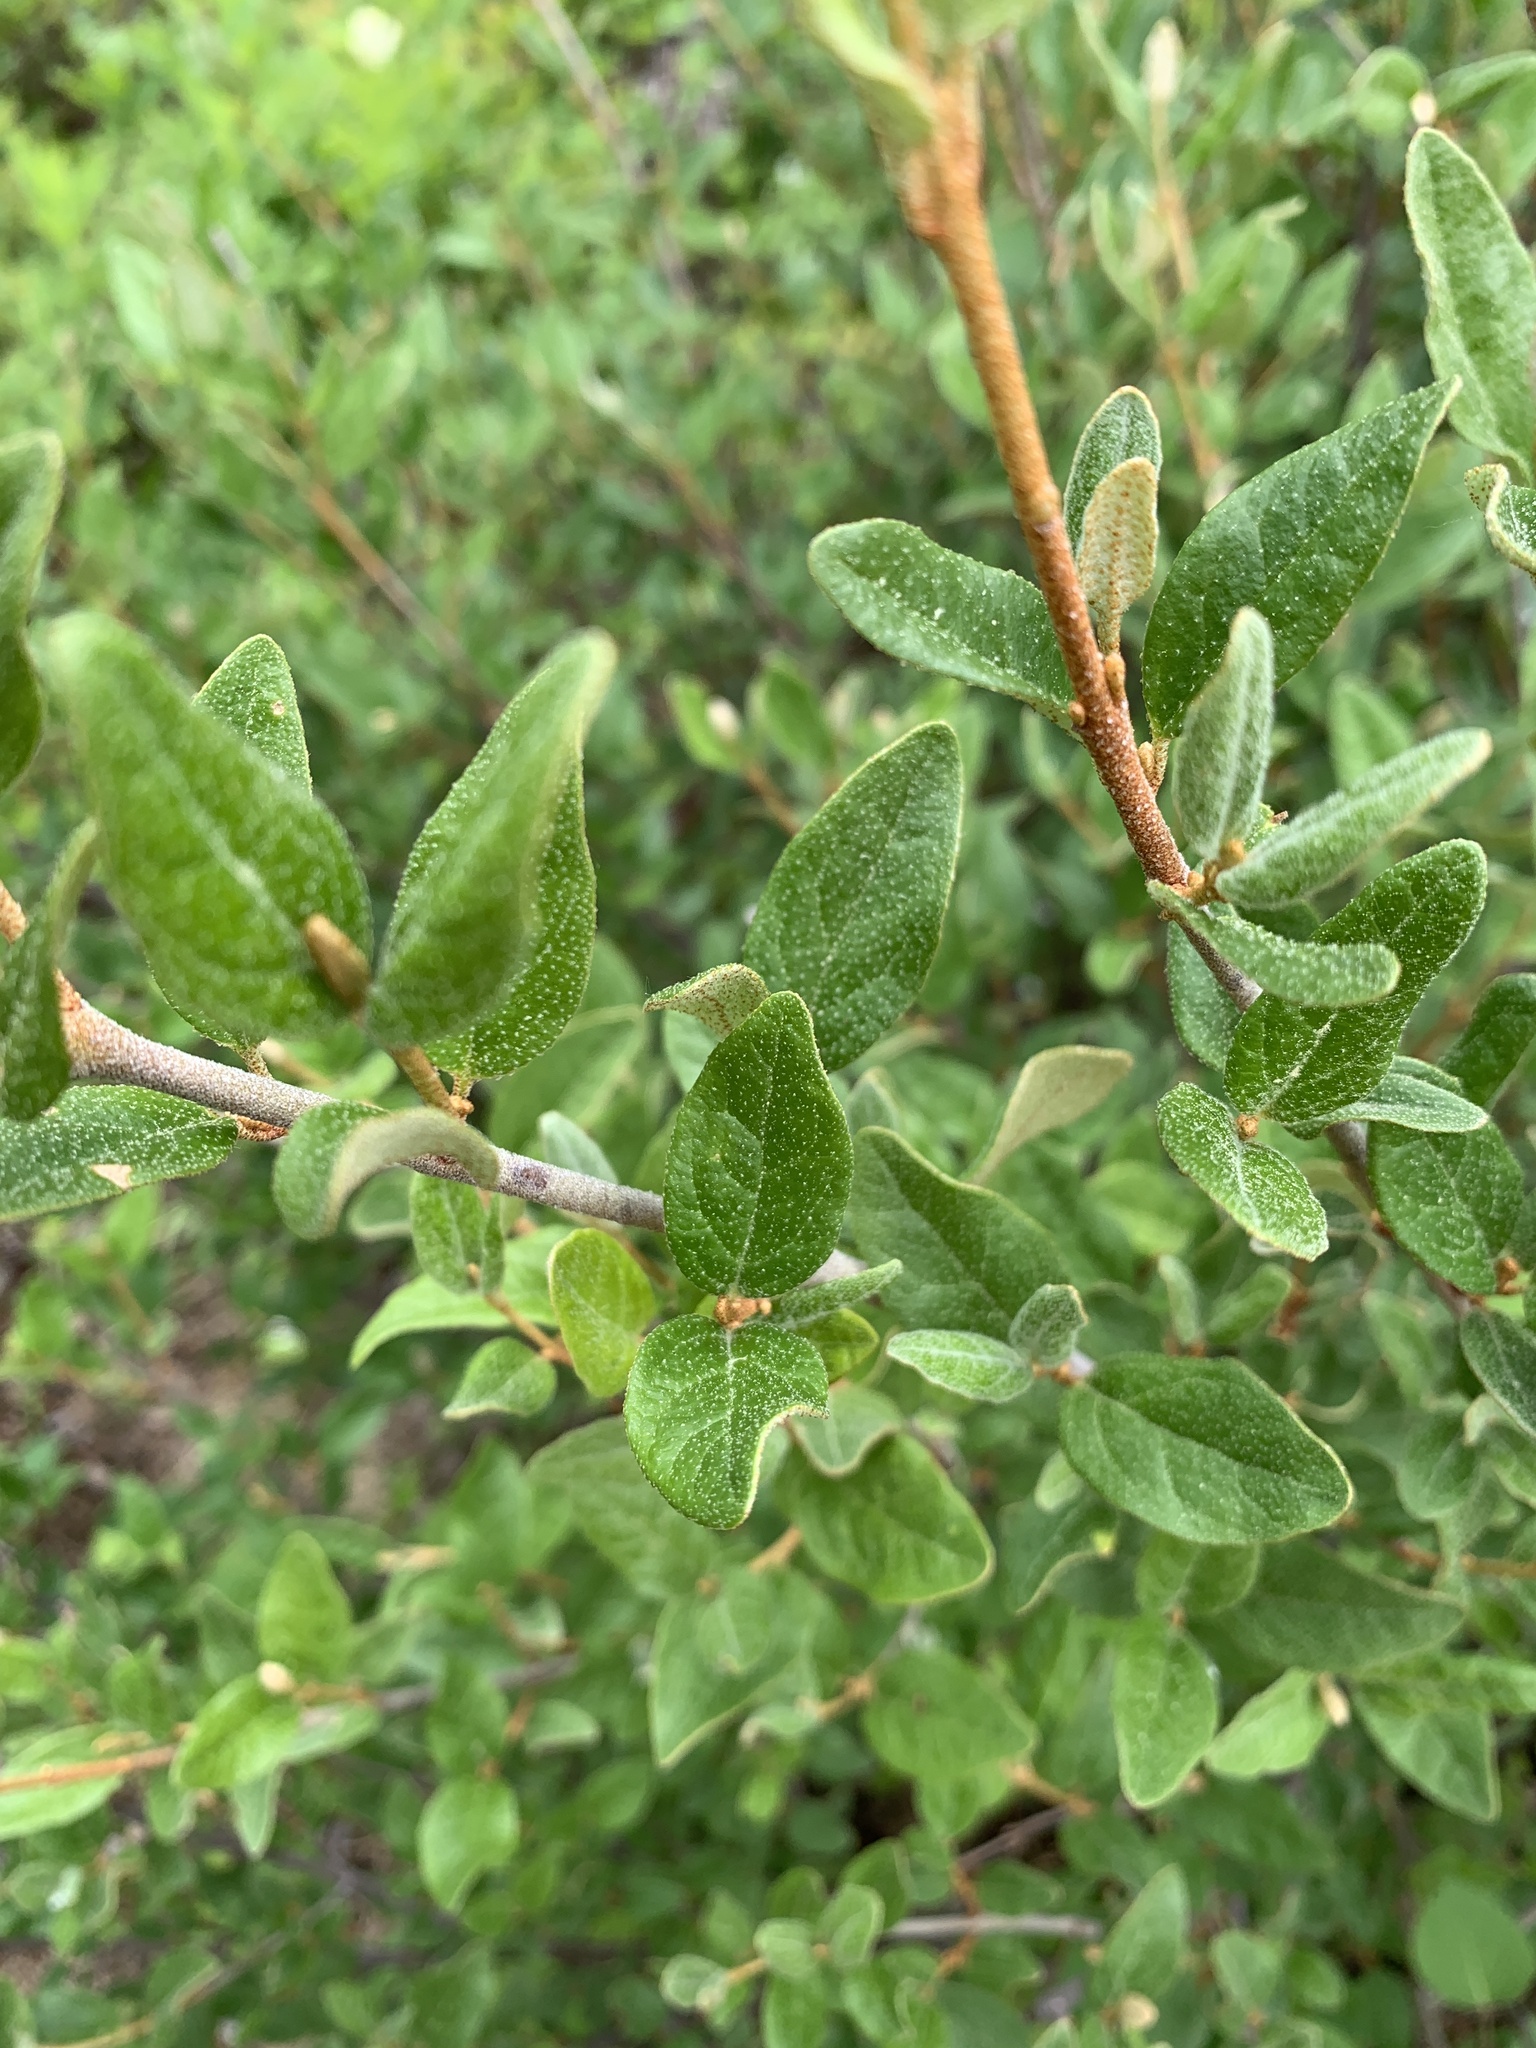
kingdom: Plantae
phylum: Tracheophyta
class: Magnoliopsida
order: Rosales
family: Elaeagnaceae
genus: Shepherdia
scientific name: Shepherdia canadensis
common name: Soapberry
